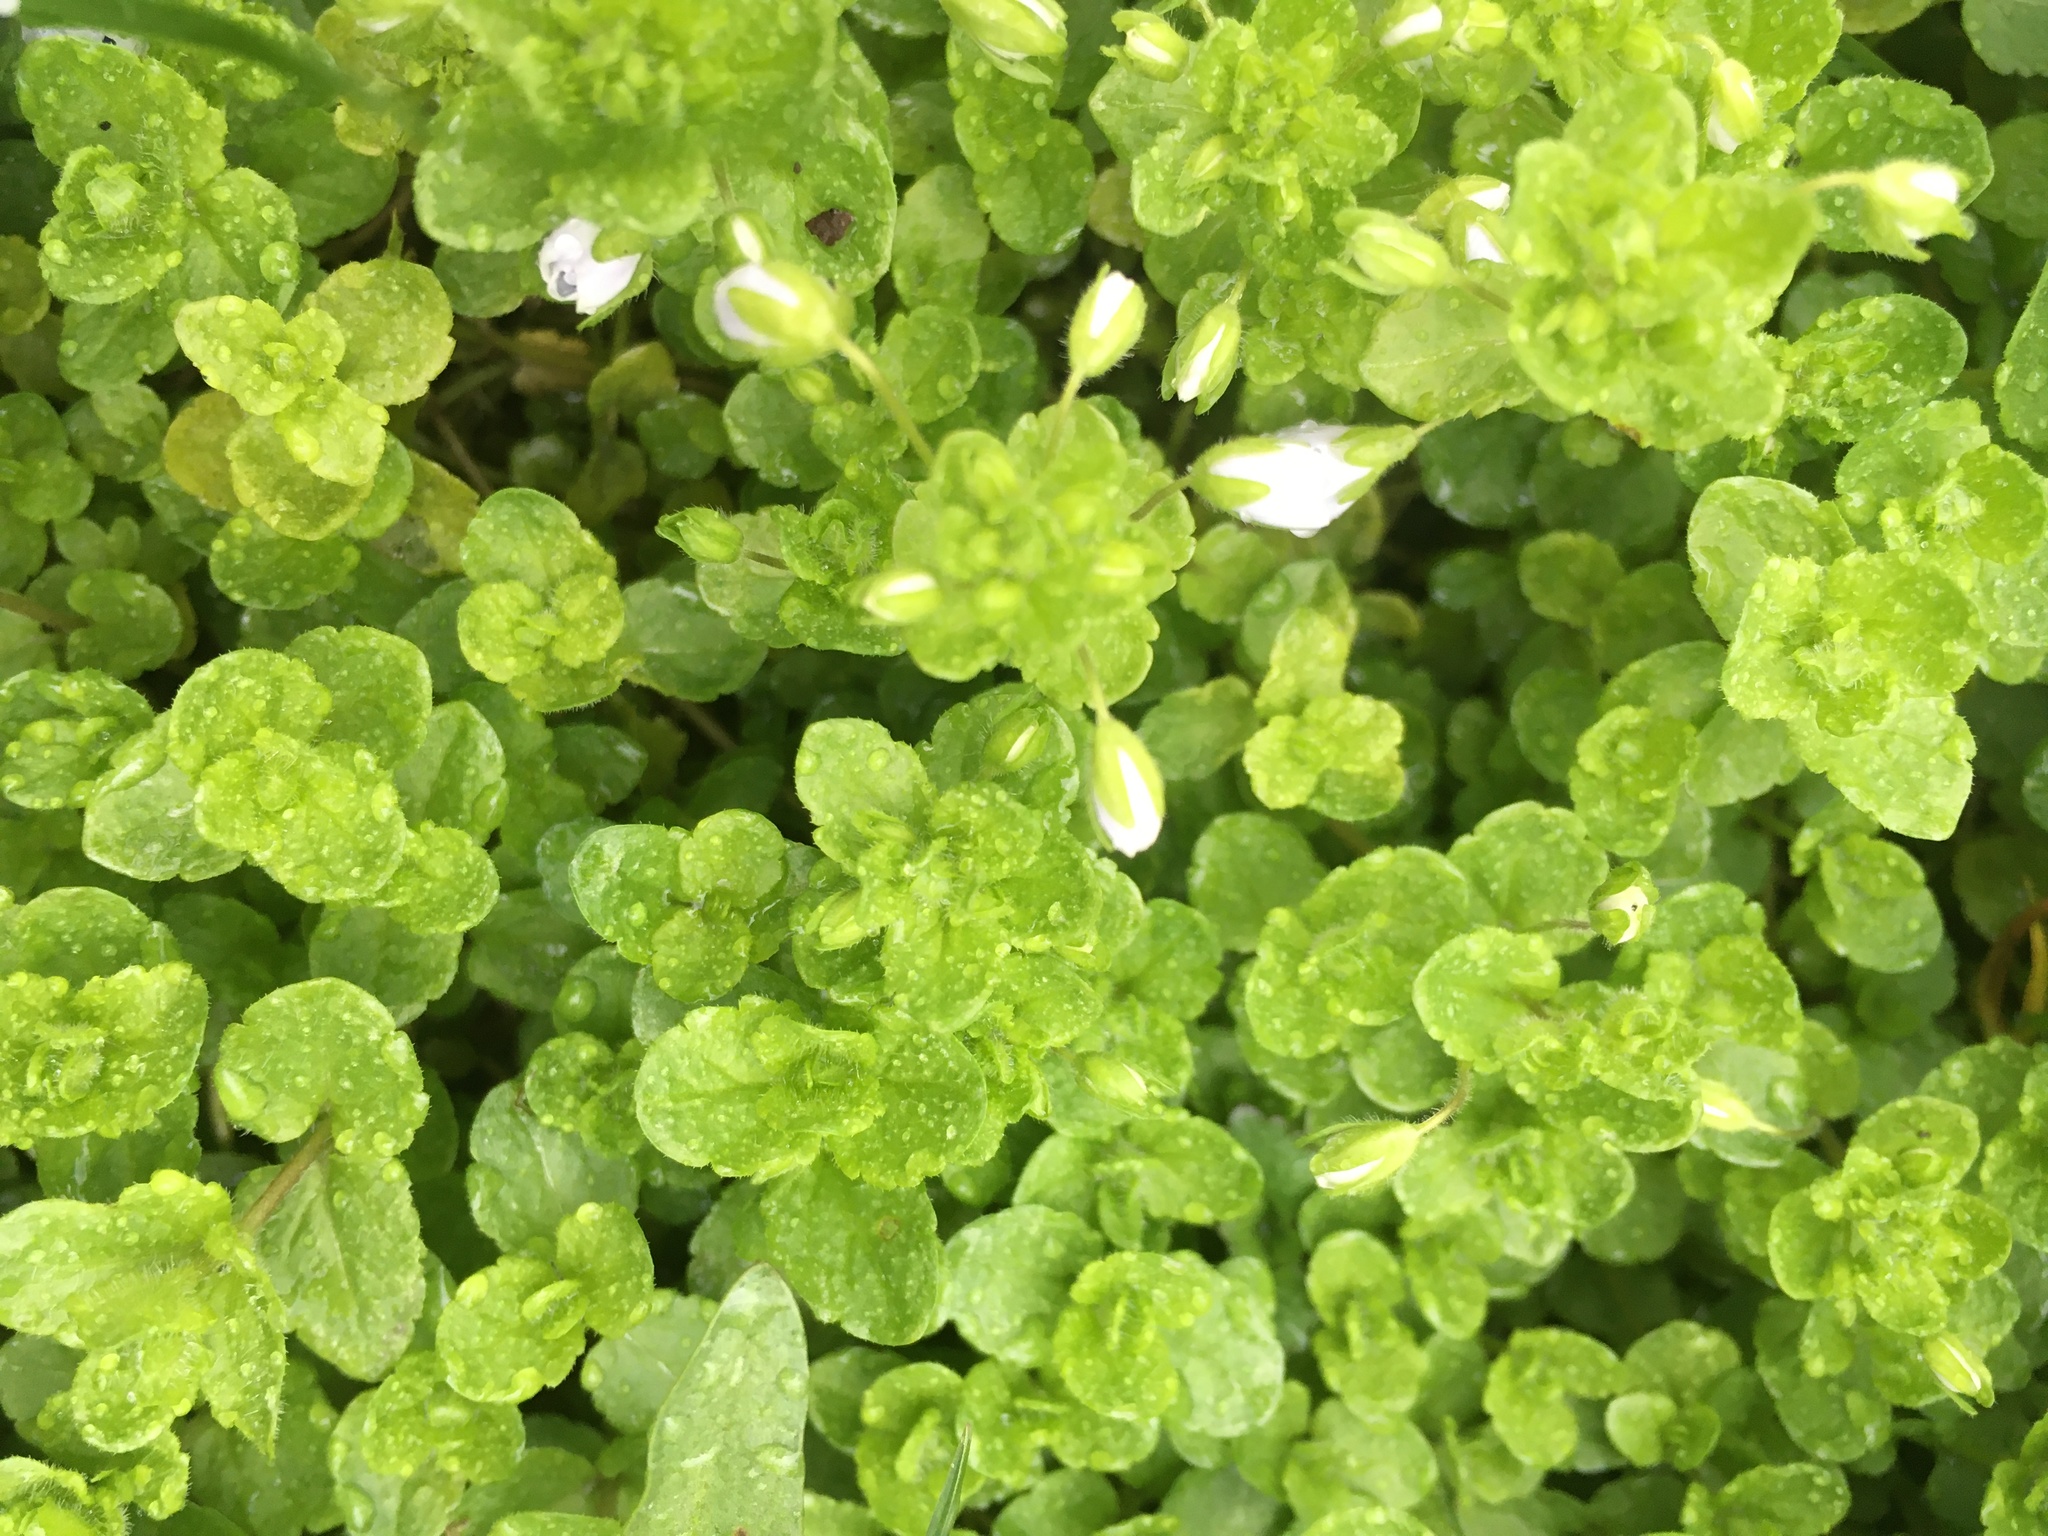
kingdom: Plantae
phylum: Tracheophyta
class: Magnoliopsida
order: Lamiales
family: Plantaginaceae
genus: Veronica
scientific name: Veronica filiformis
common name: Slender speedwell
